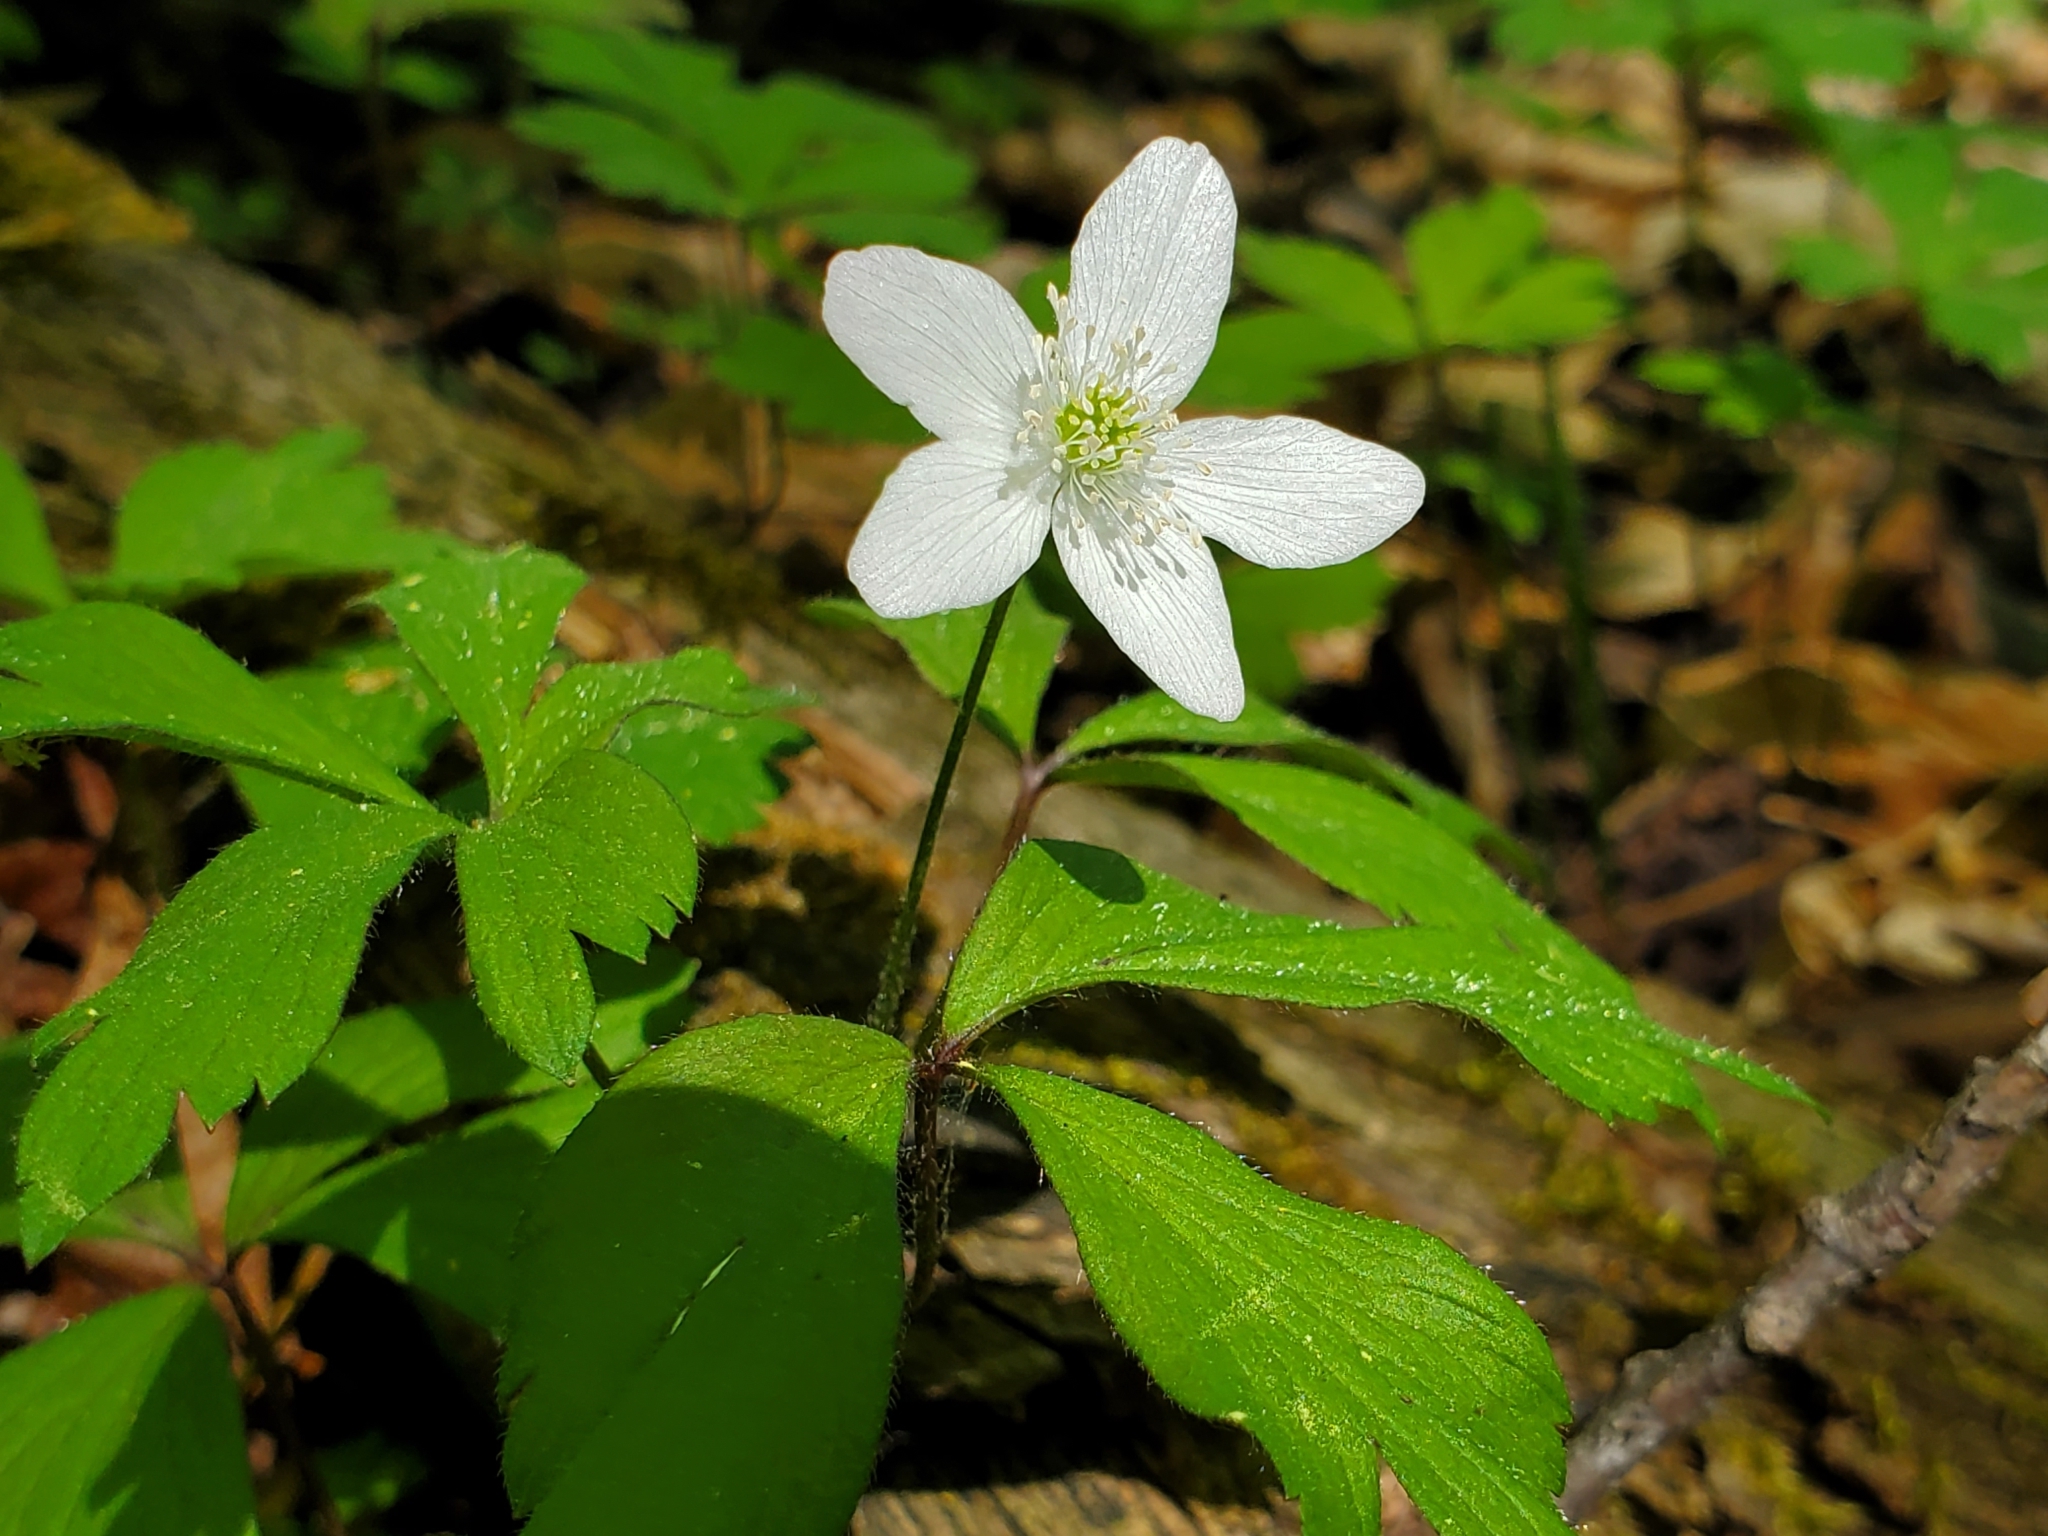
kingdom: Plantae
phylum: Tracheophyta
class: Magnoliopsida
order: Ranunculales
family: Ranunculaceae
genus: Anemone
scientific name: Anemone quinquefolia
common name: Wood anemone
